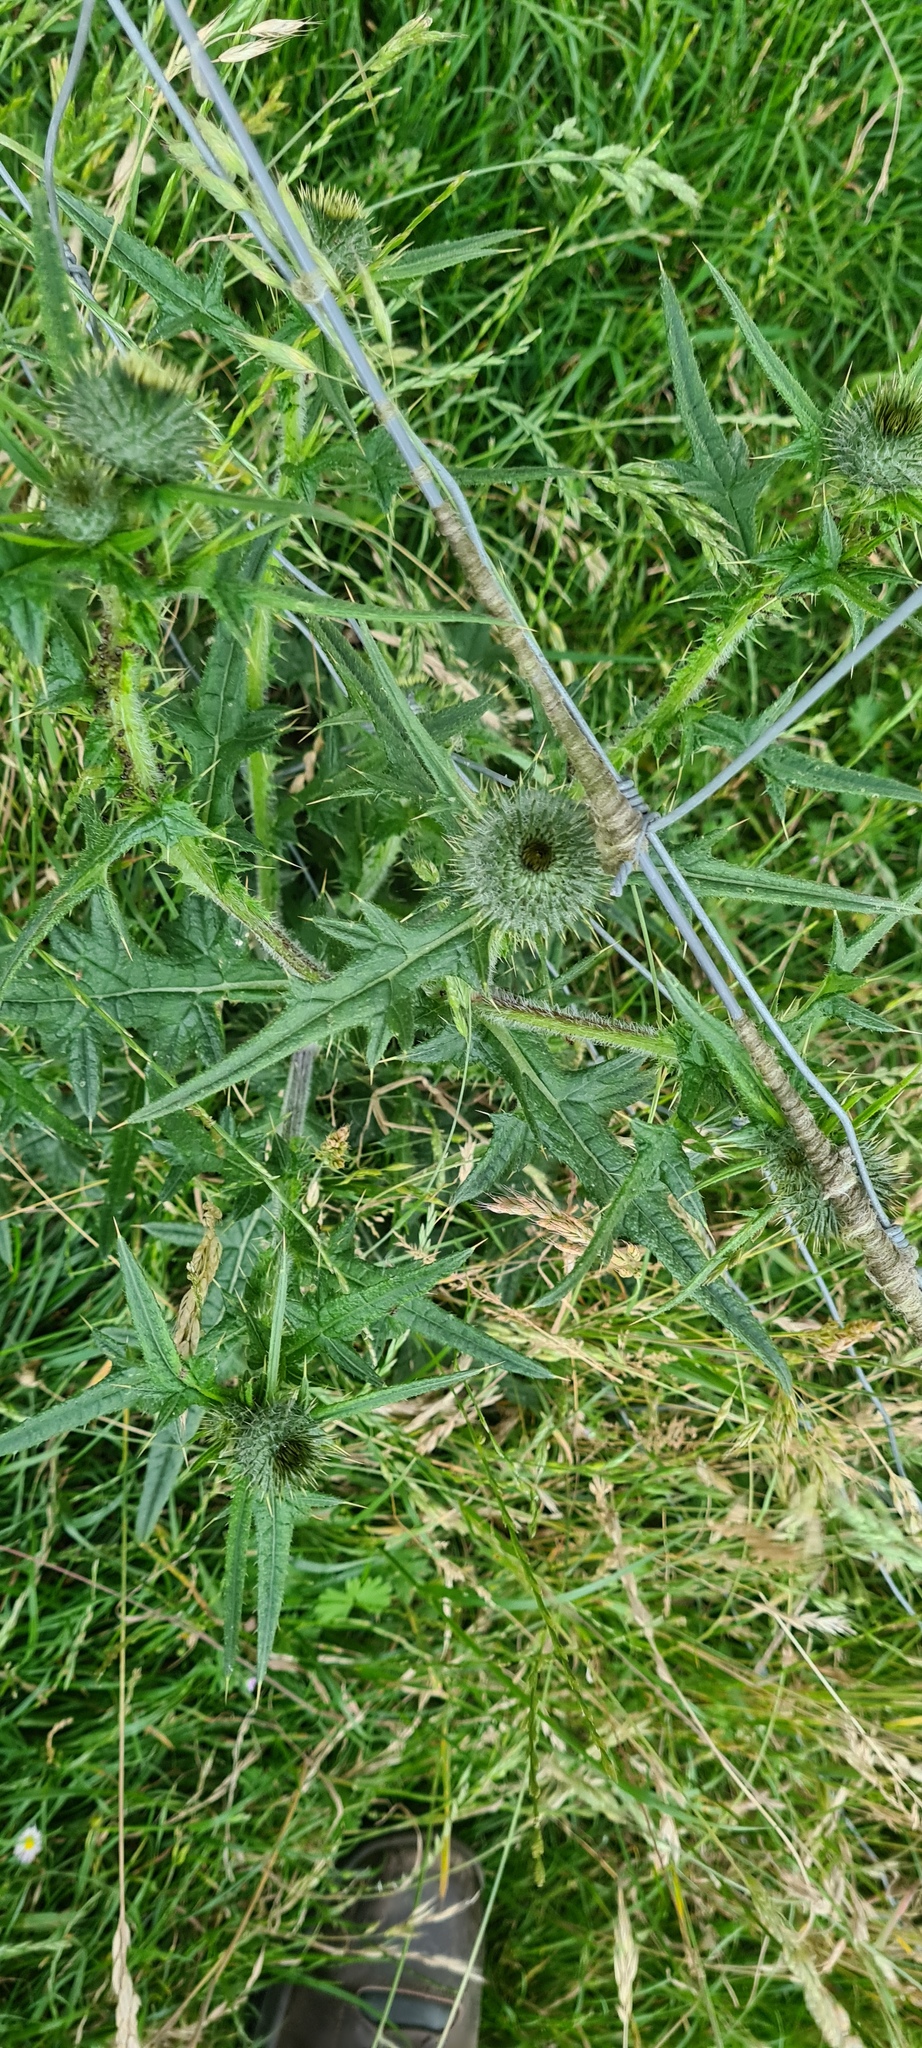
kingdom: Plantae
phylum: Tracheophyta
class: Magnoliopsida
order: Asterales
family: Asteraceae
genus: Cirsium
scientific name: Cirsium vulgare
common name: Bull thistle
